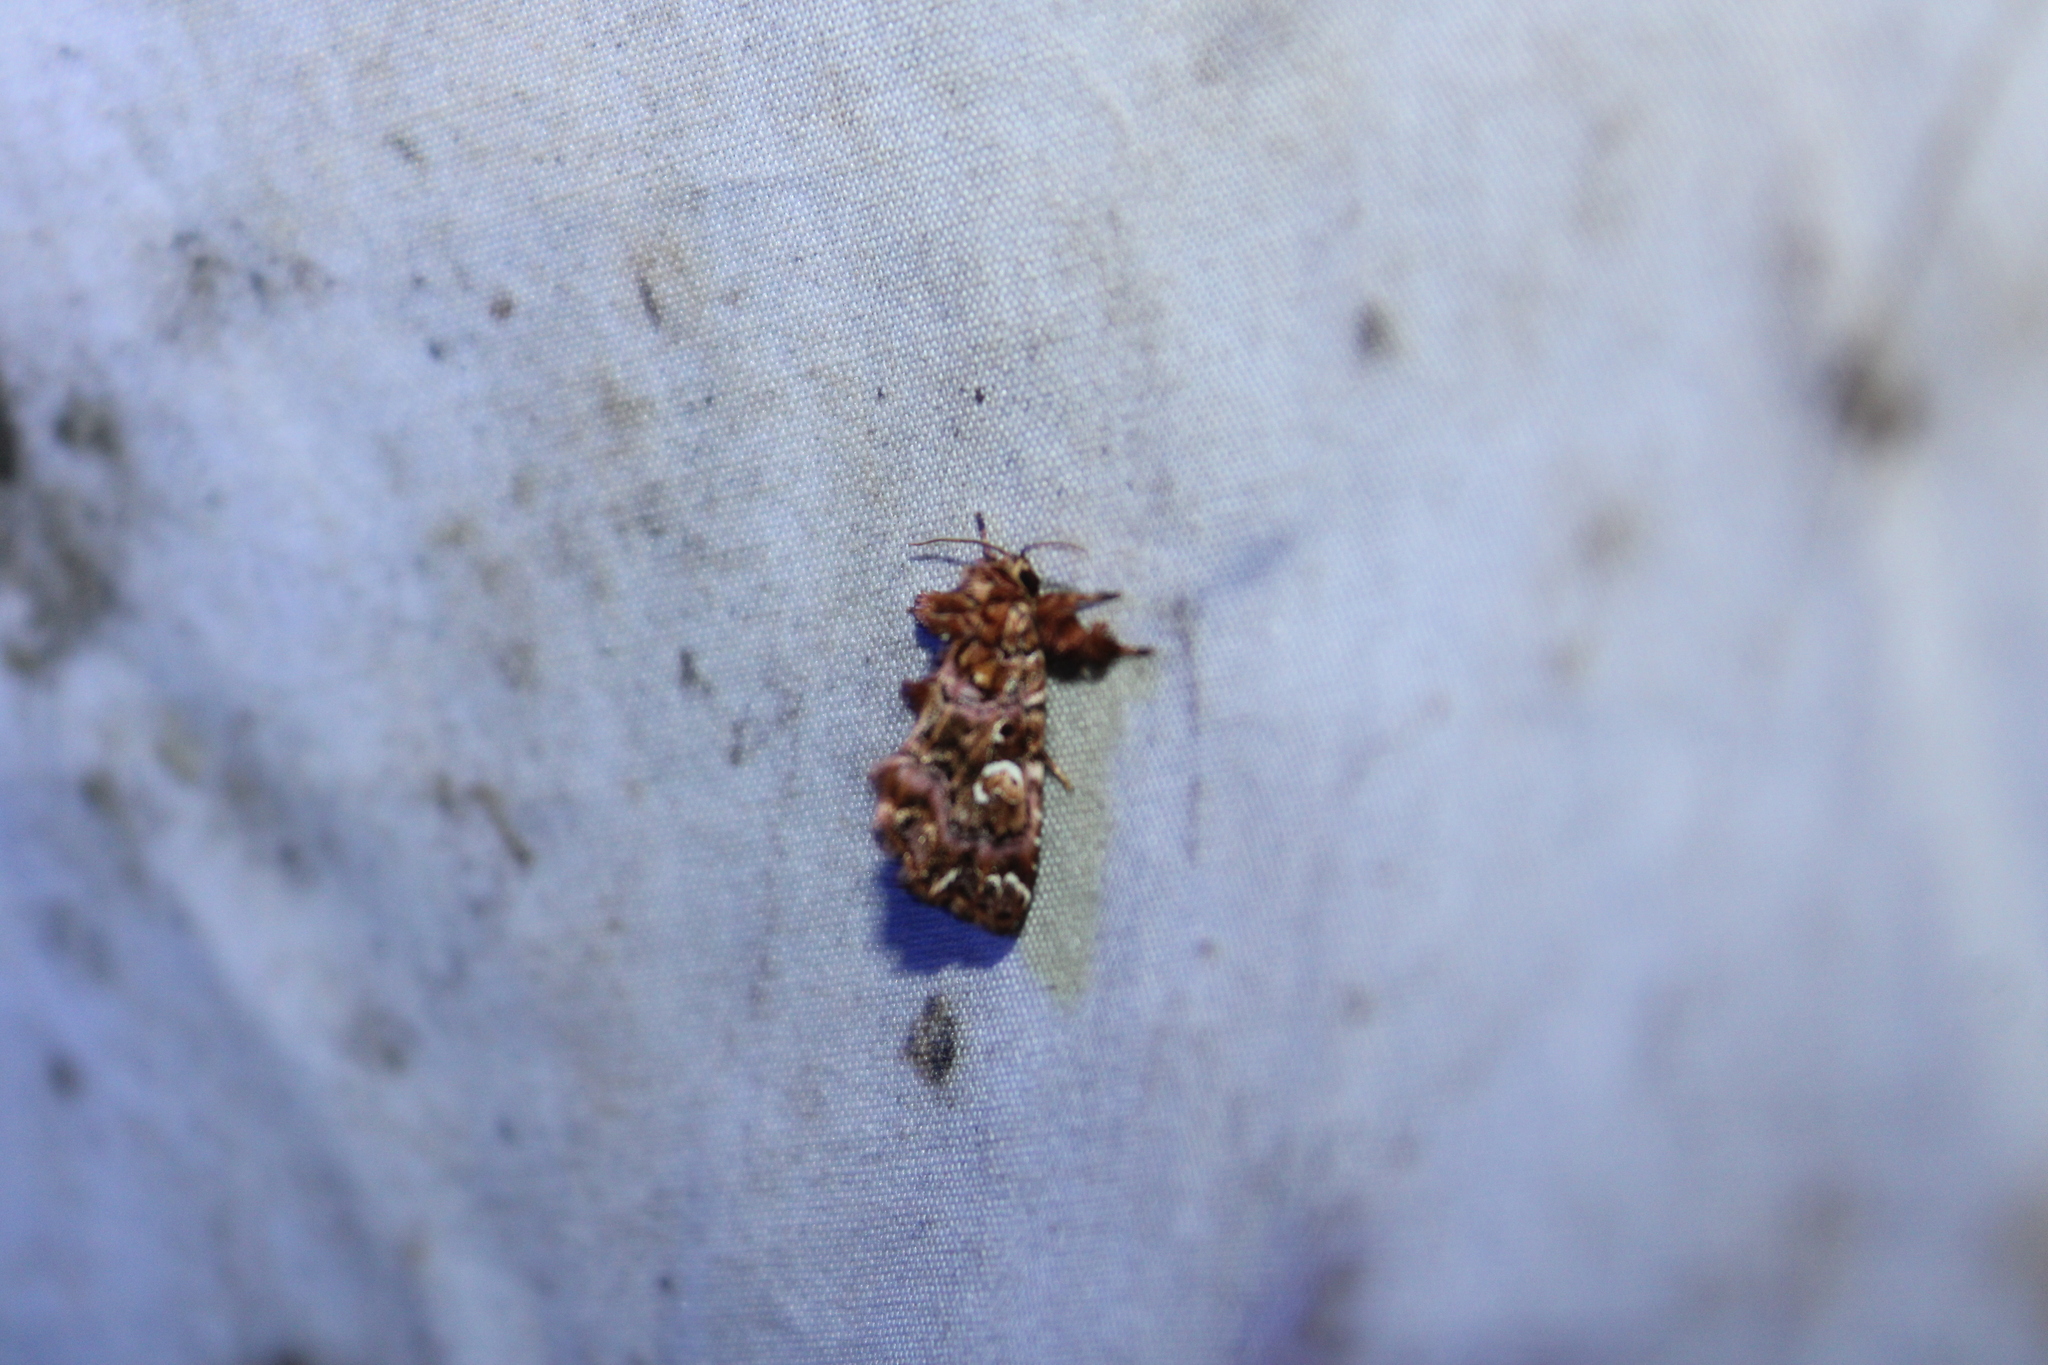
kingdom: Animalia
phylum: Arthropoda
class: Insecta
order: Lepidoptera
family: Noctuidae
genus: Callopistria
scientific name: Callopistria mollissima
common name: Pink-shaded fern moth
